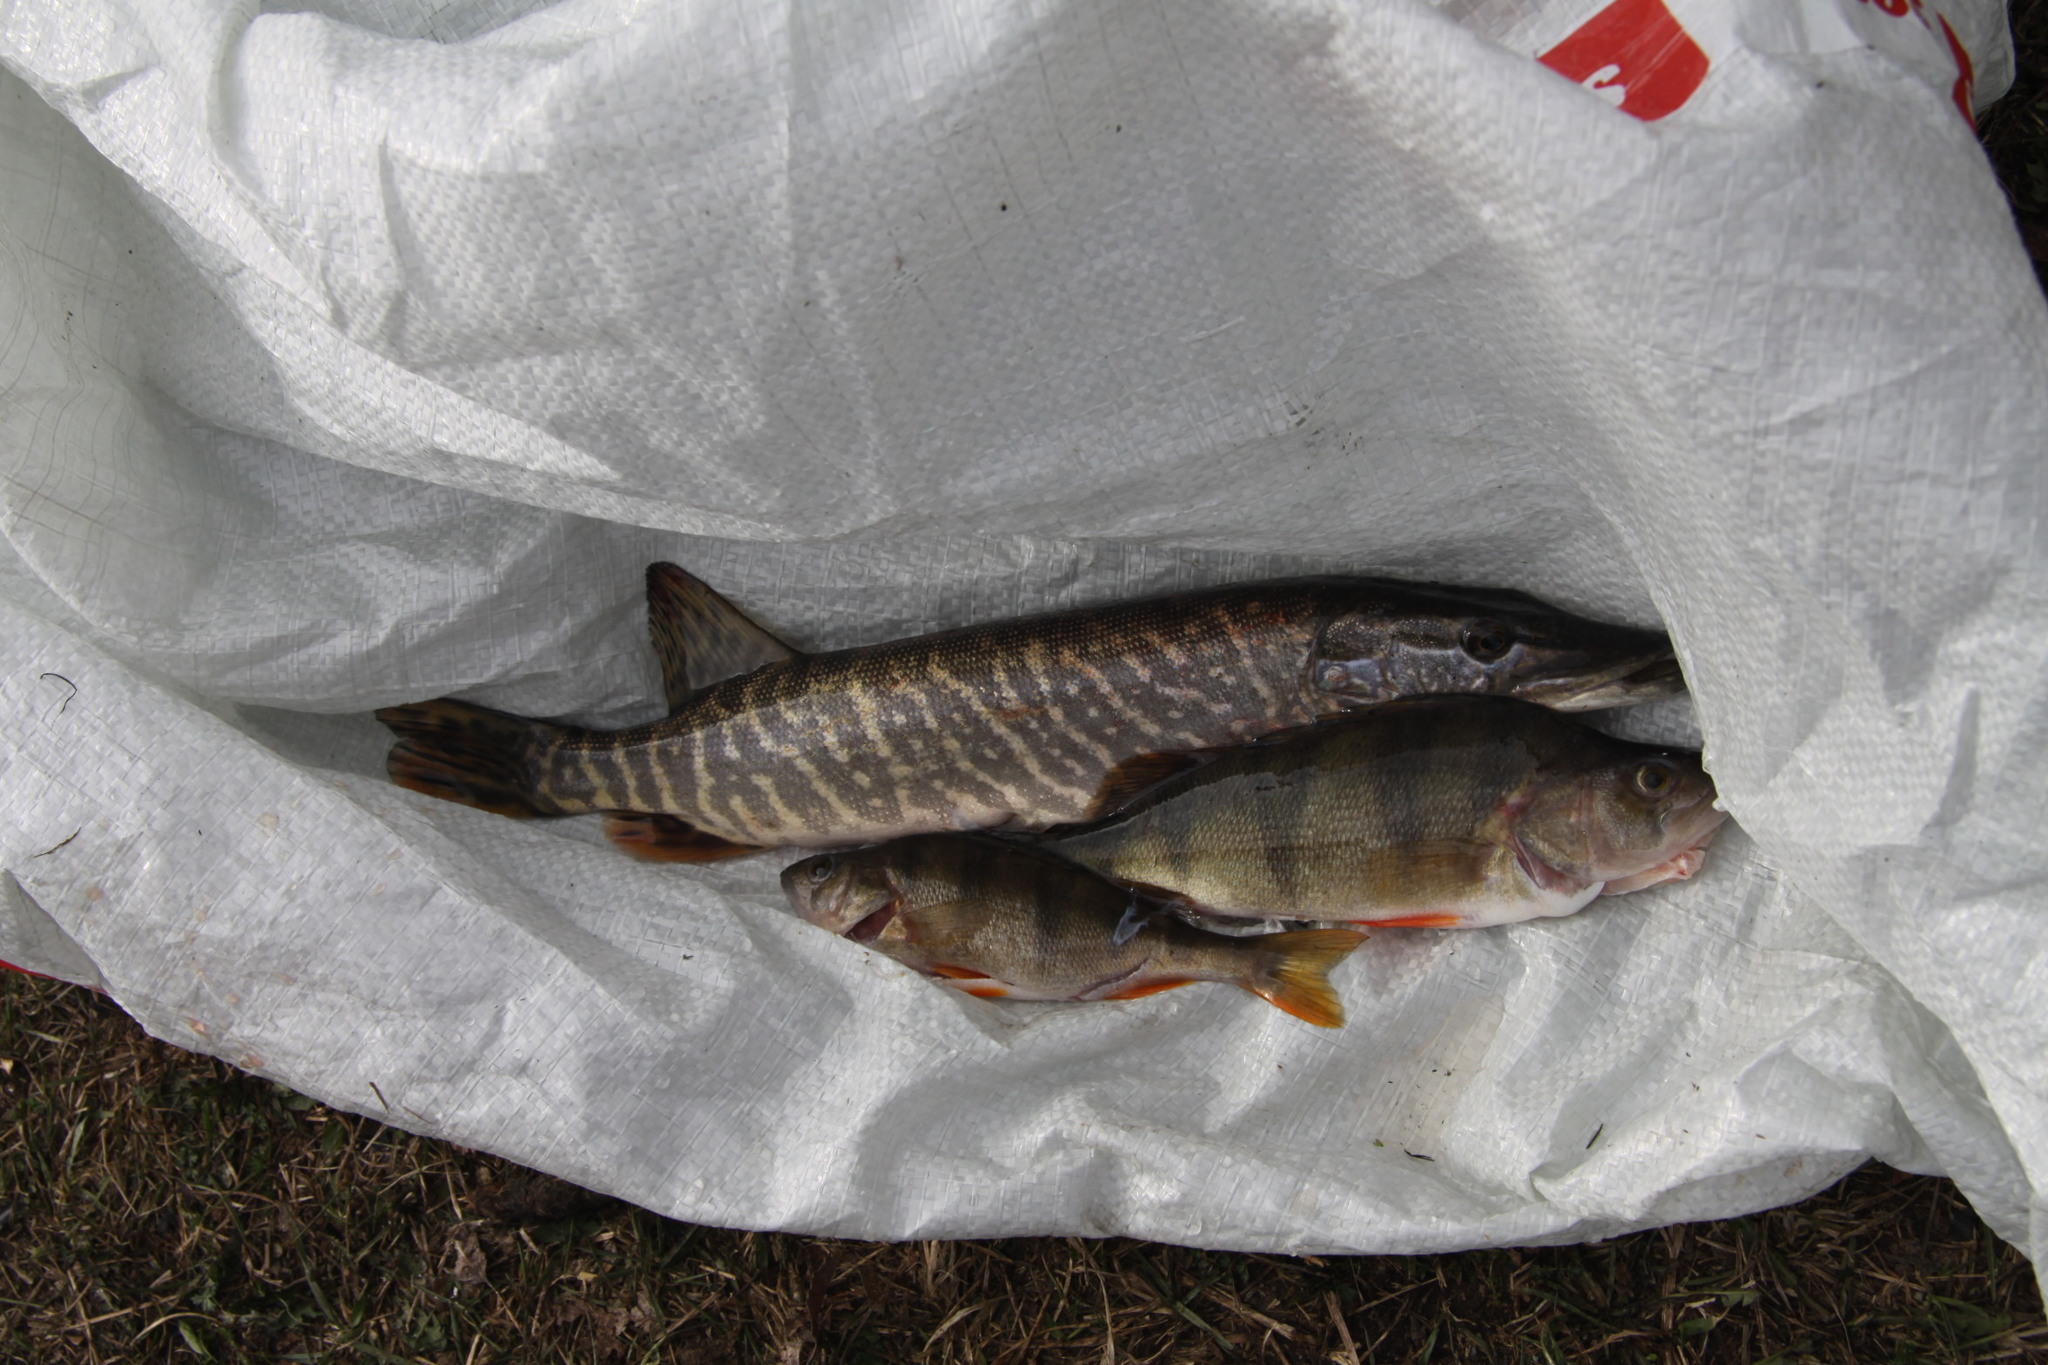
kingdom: Animalia
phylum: Chordata
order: Esociformes
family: Esocidae
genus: Esox
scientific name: Esox lucius
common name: Northern pike
